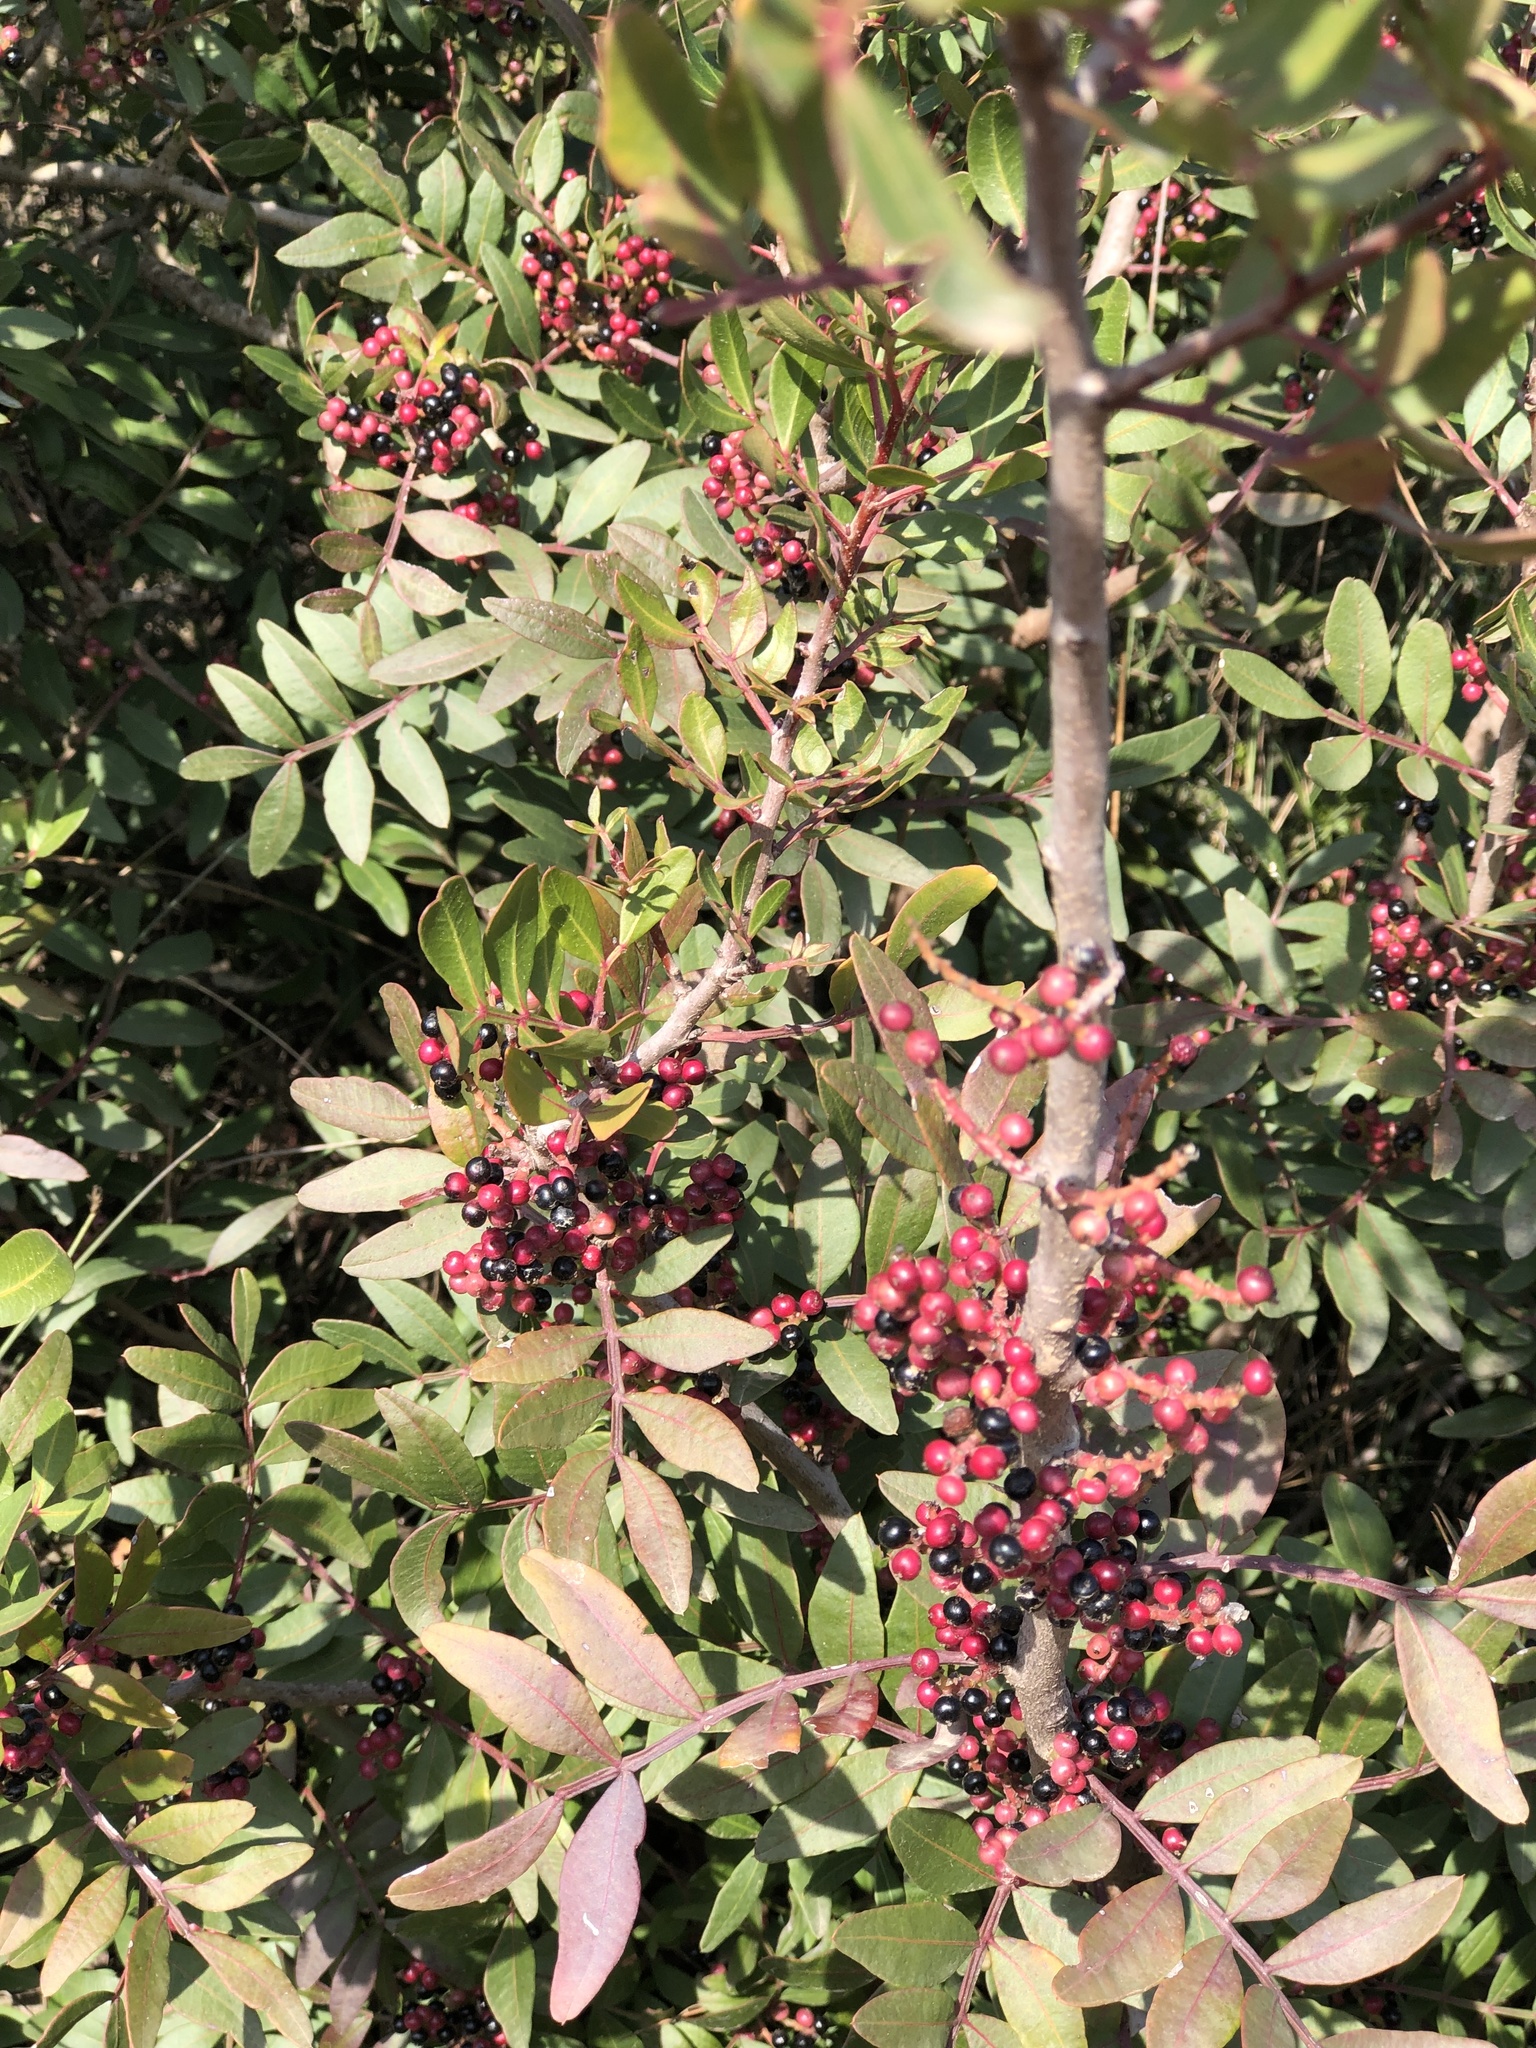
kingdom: Plantae
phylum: Tracheophyta
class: Magnoliopsida
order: Sapindales
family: Anacardiaceae
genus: Pistacia
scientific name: Pistacia lentiscus
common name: Lentisk
